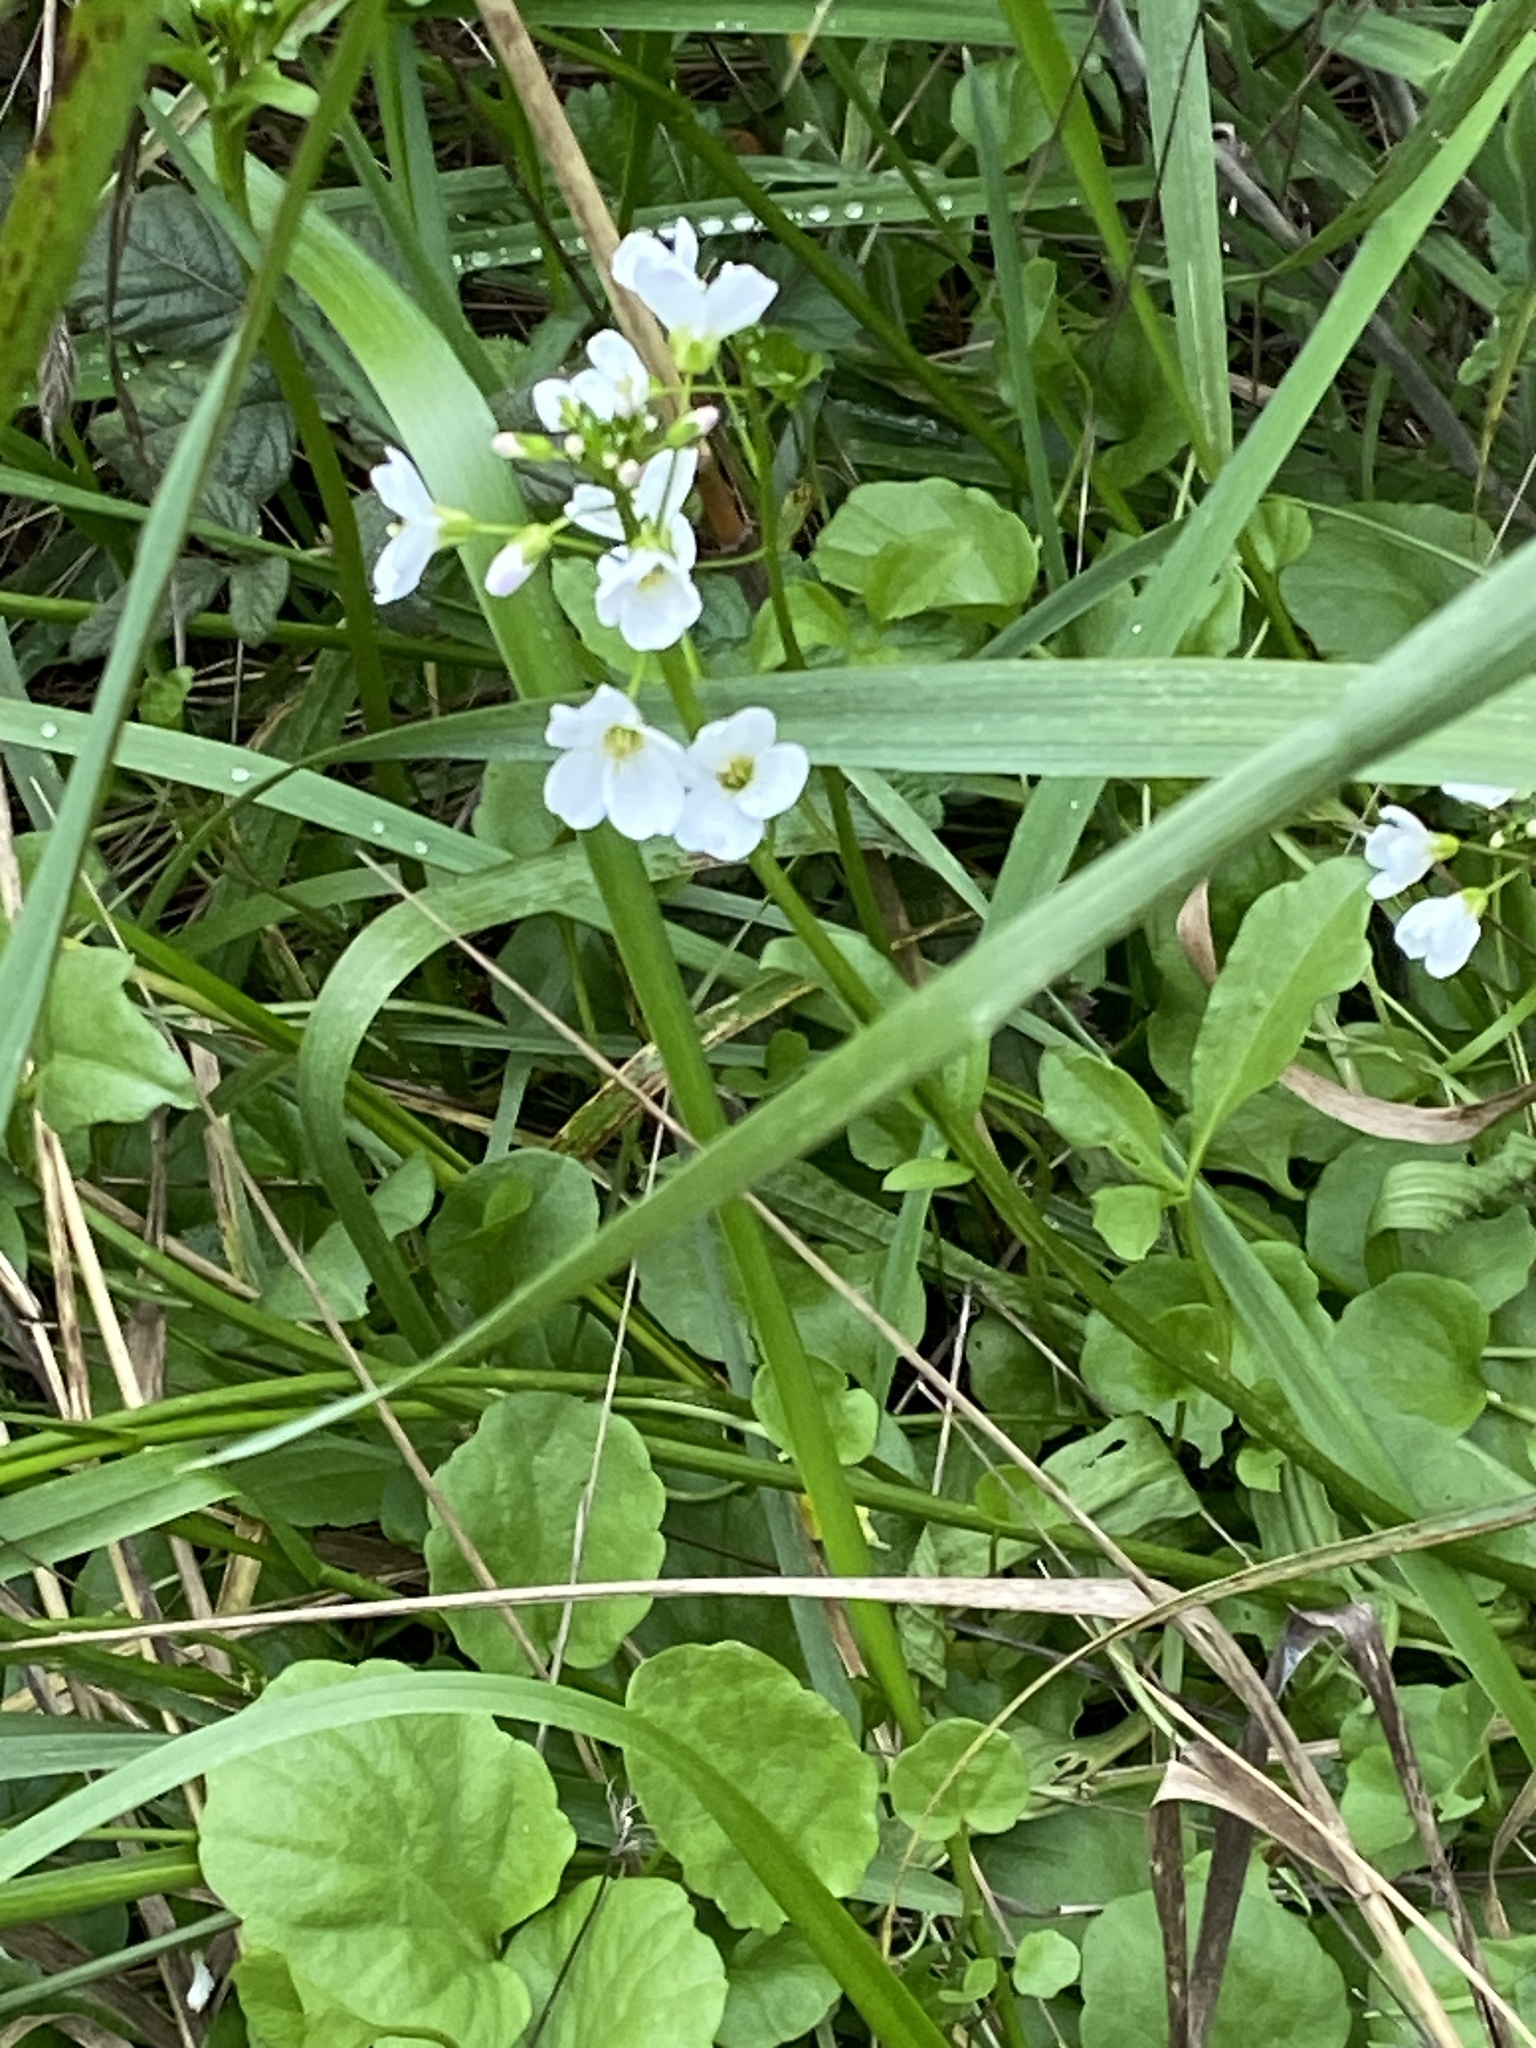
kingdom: Plantae
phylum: Tracheophyta
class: Magnoliopsida
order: Brassicales
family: Brassicaceae
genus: Cardamine
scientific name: Cardamine californica
